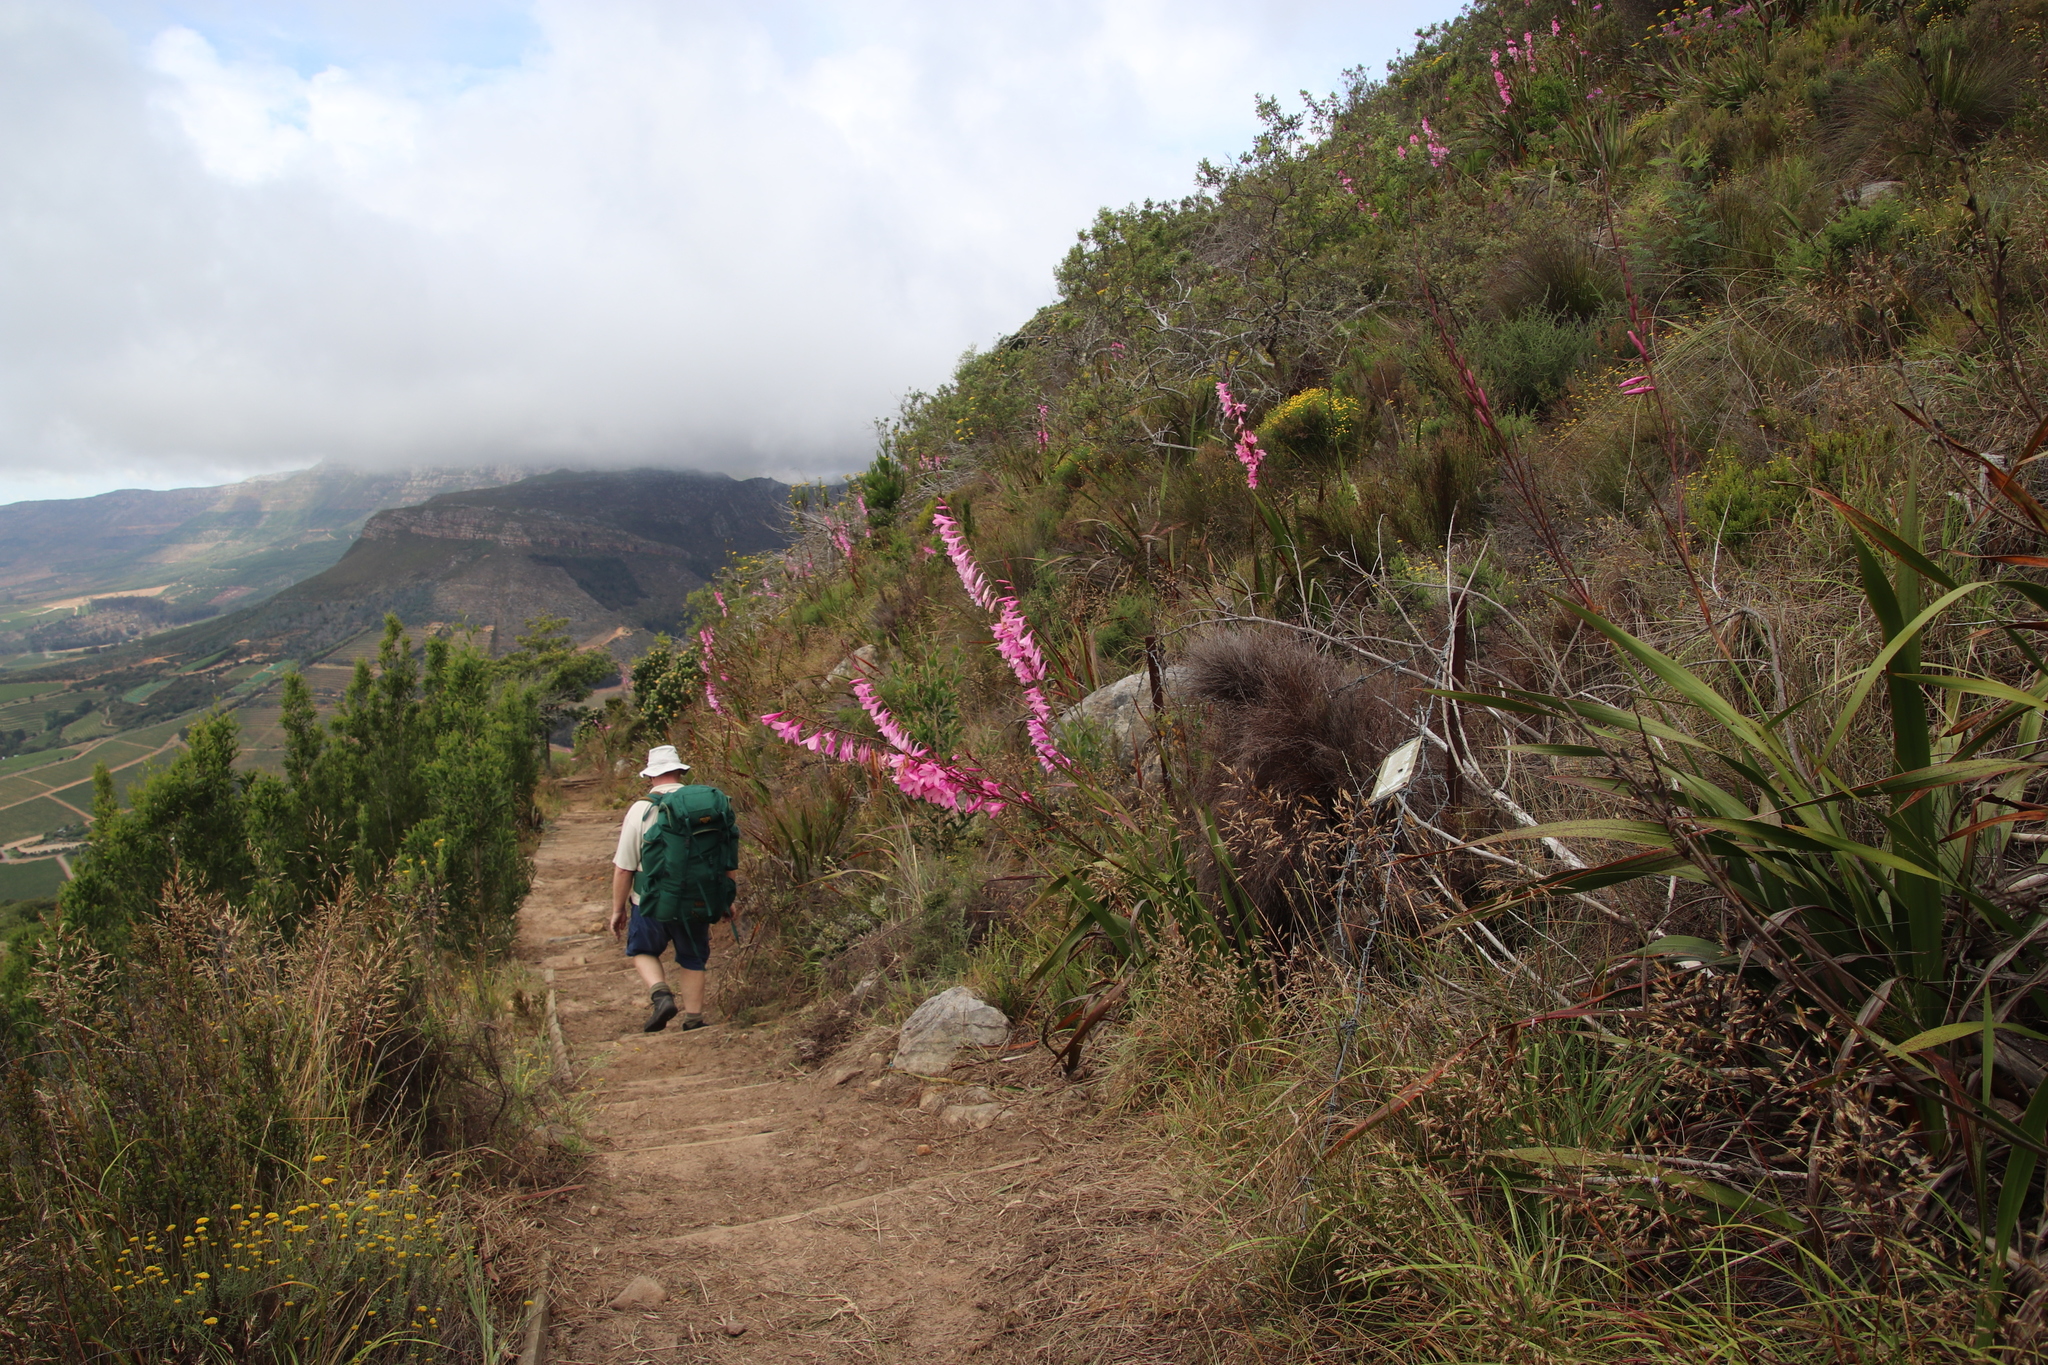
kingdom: Plantae
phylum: Tracheophyta
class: Liliopsida
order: Asparagales
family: Iridaceae
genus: Watsonia
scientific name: Watsonia borbonica
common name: Bugle-lily
